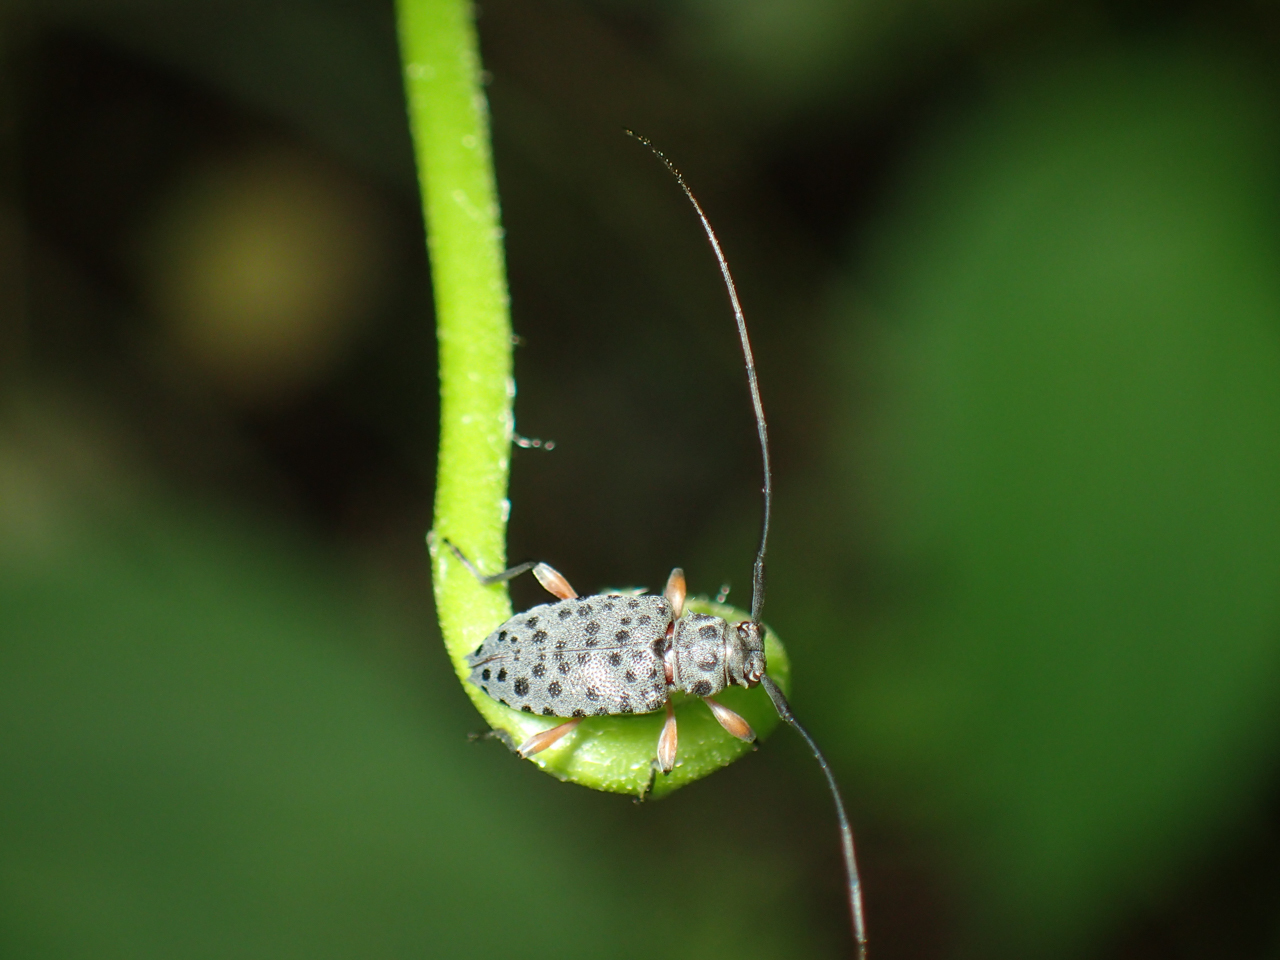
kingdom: Animalia
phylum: Arthropoda
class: Insecta
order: Coleoptera
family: Cerambycidae
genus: Hyperplatys
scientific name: Hyperplatys aspersa
